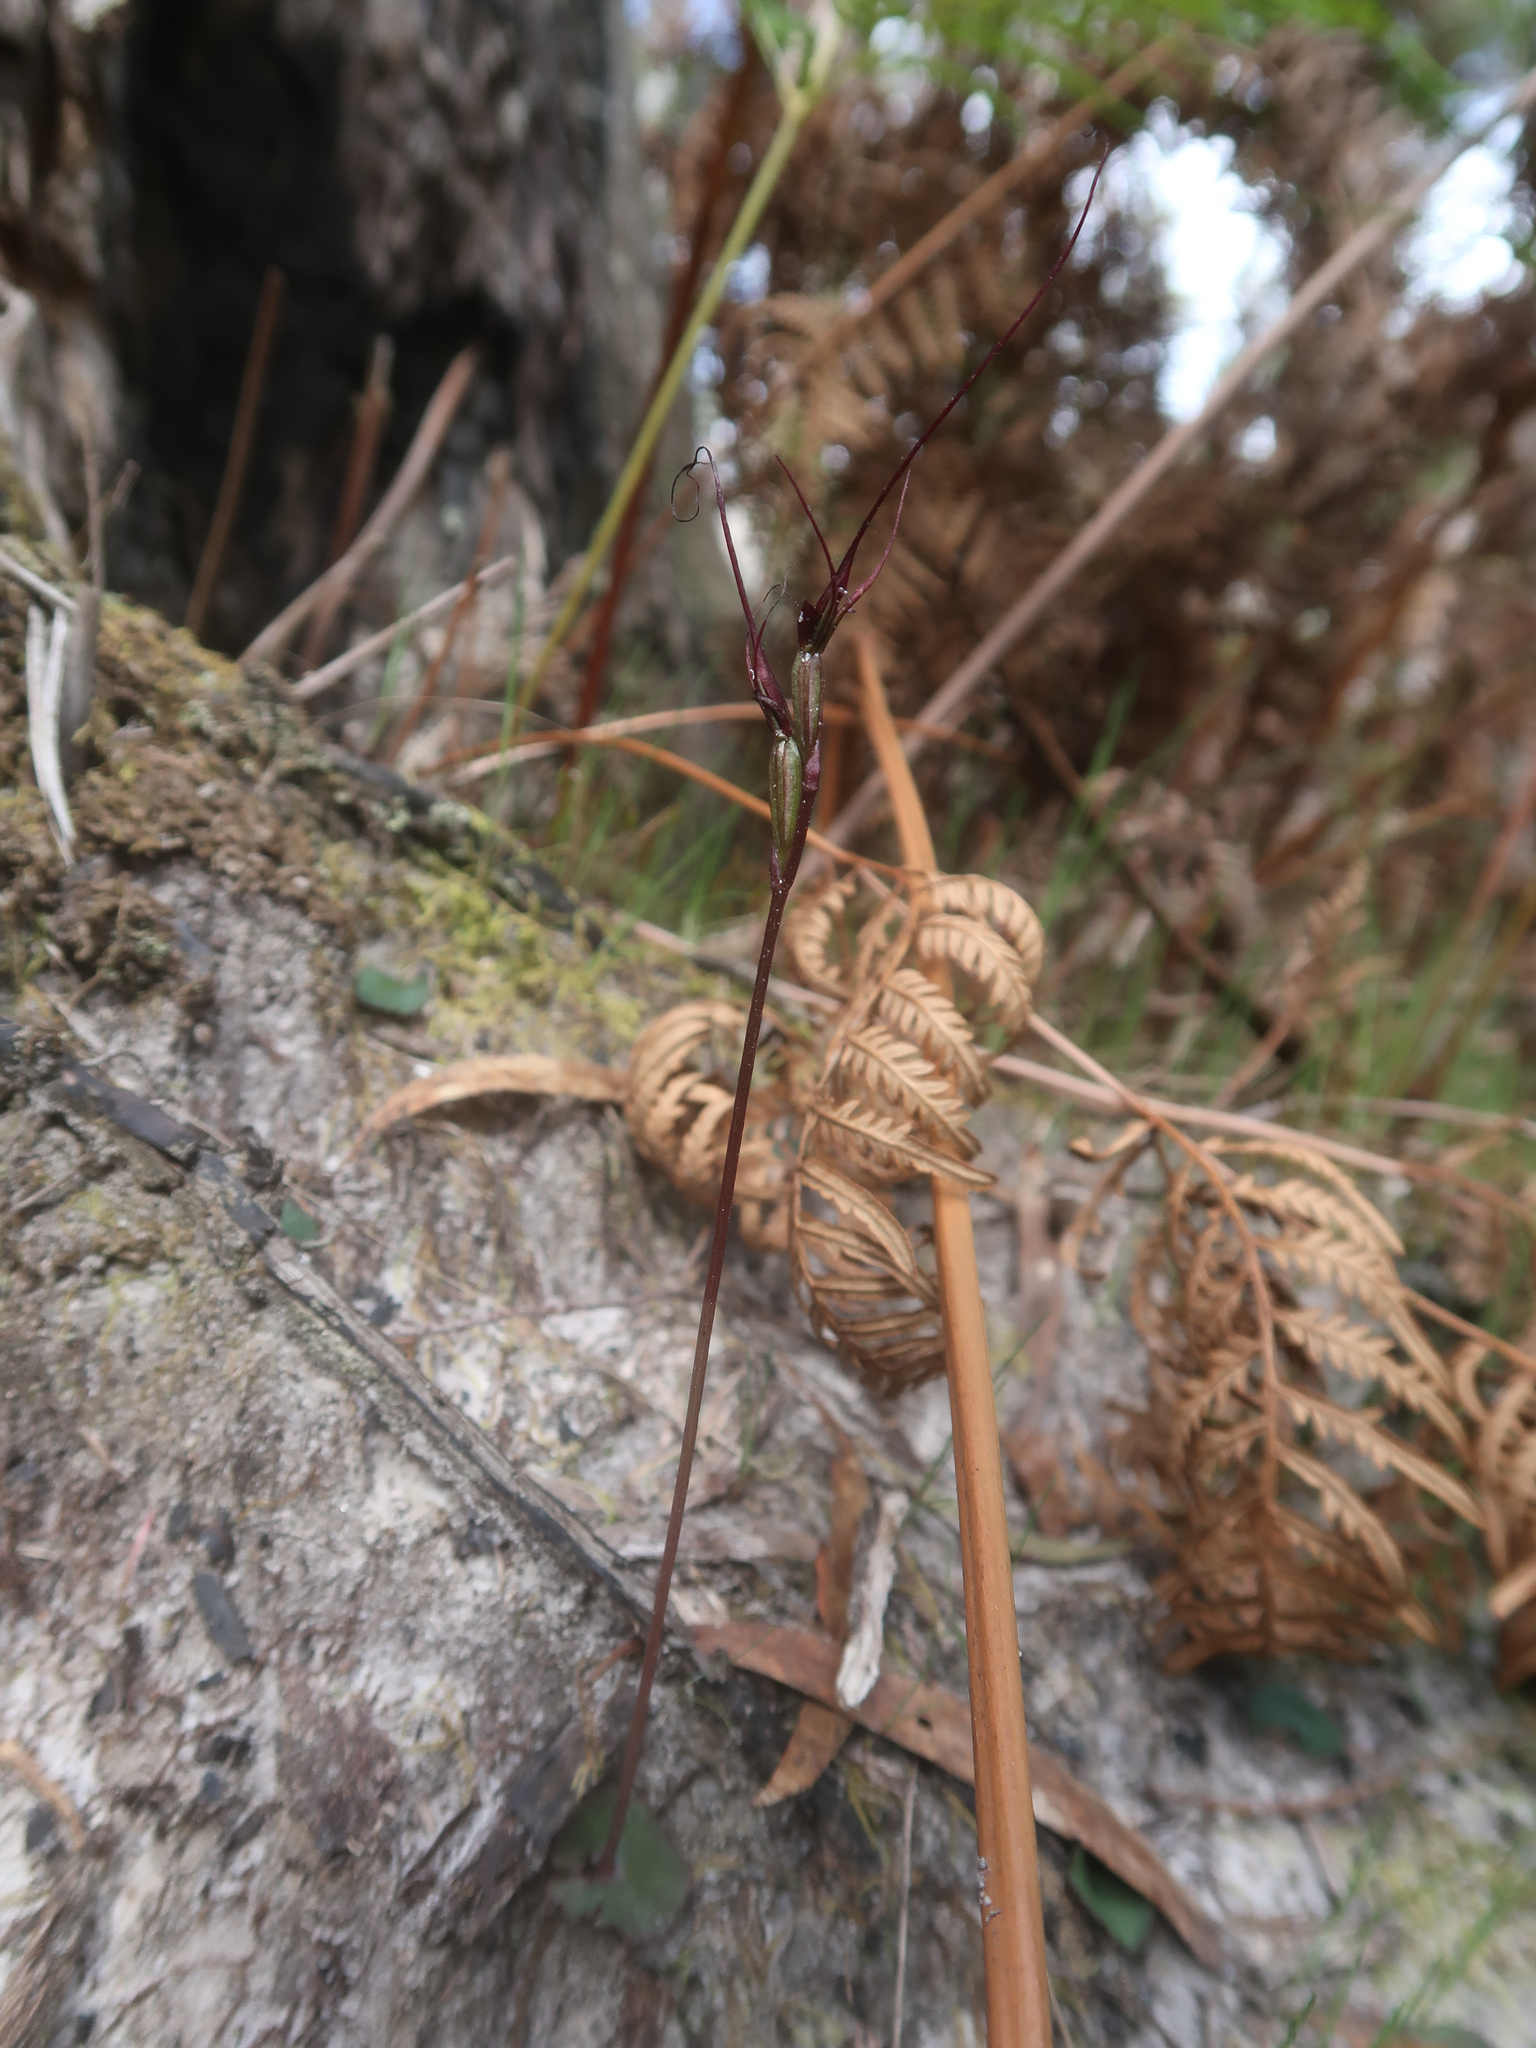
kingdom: Plantae
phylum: Tracheophyta
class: Liliopsida
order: Asparagales
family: Orchidaceae
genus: Acianthus
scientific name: Acianthus caudatus
